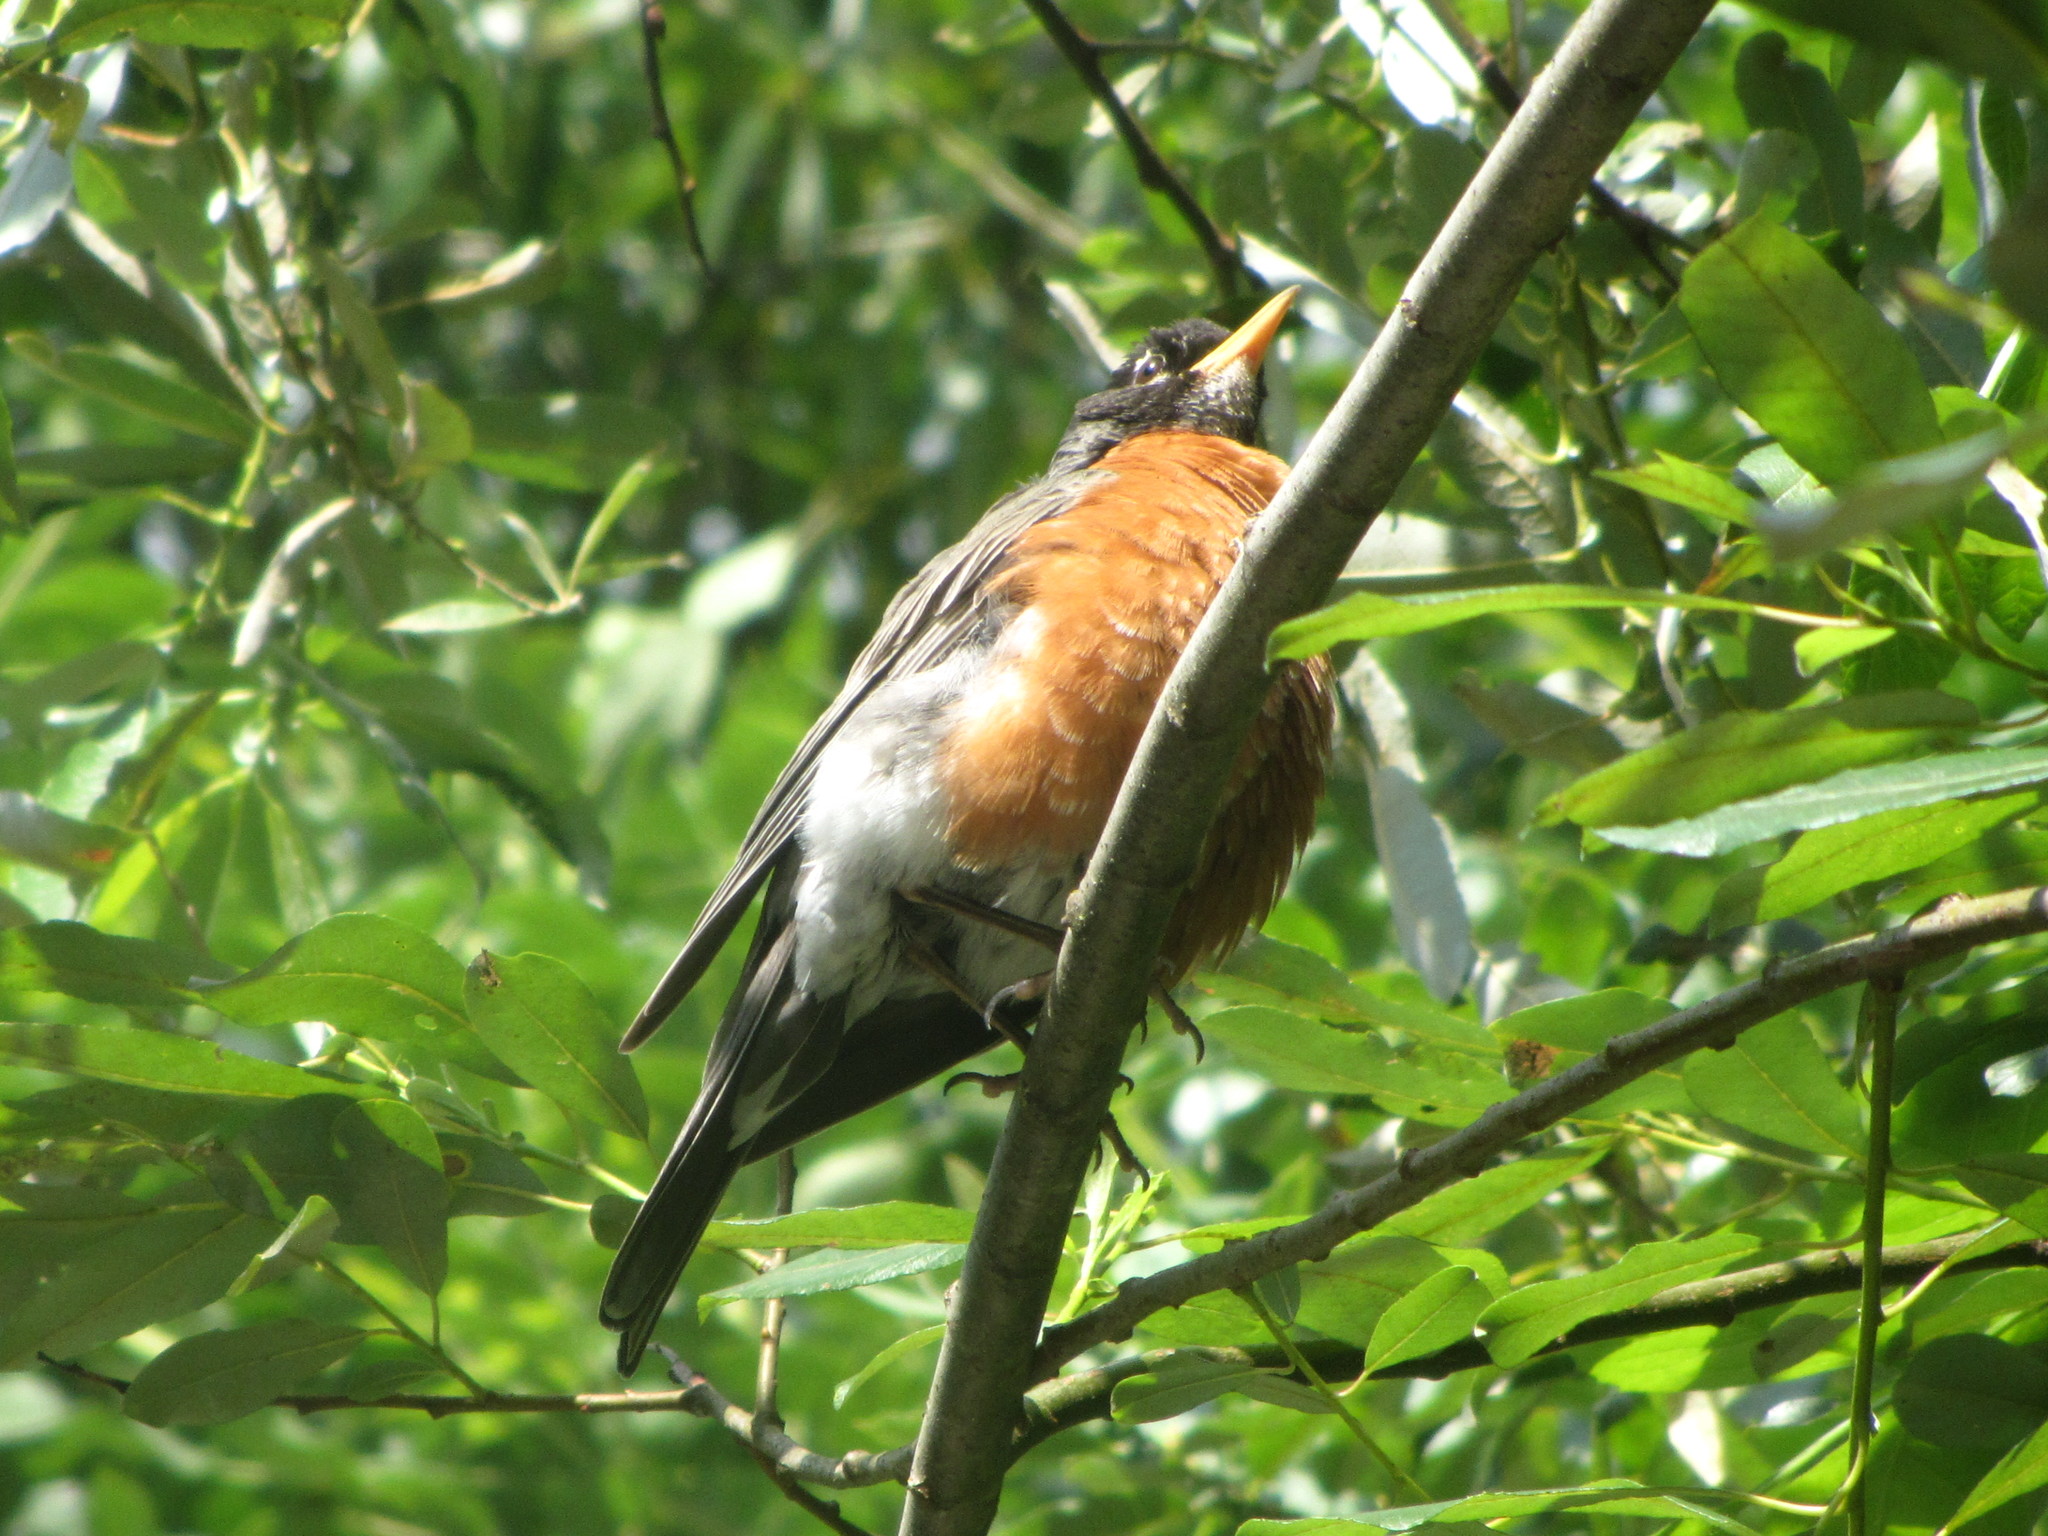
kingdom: Animalia
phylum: Chordata
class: Aves
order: Passeriformes
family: Turdidae
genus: Turdus
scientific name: Turdus migratorius
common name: American robin
